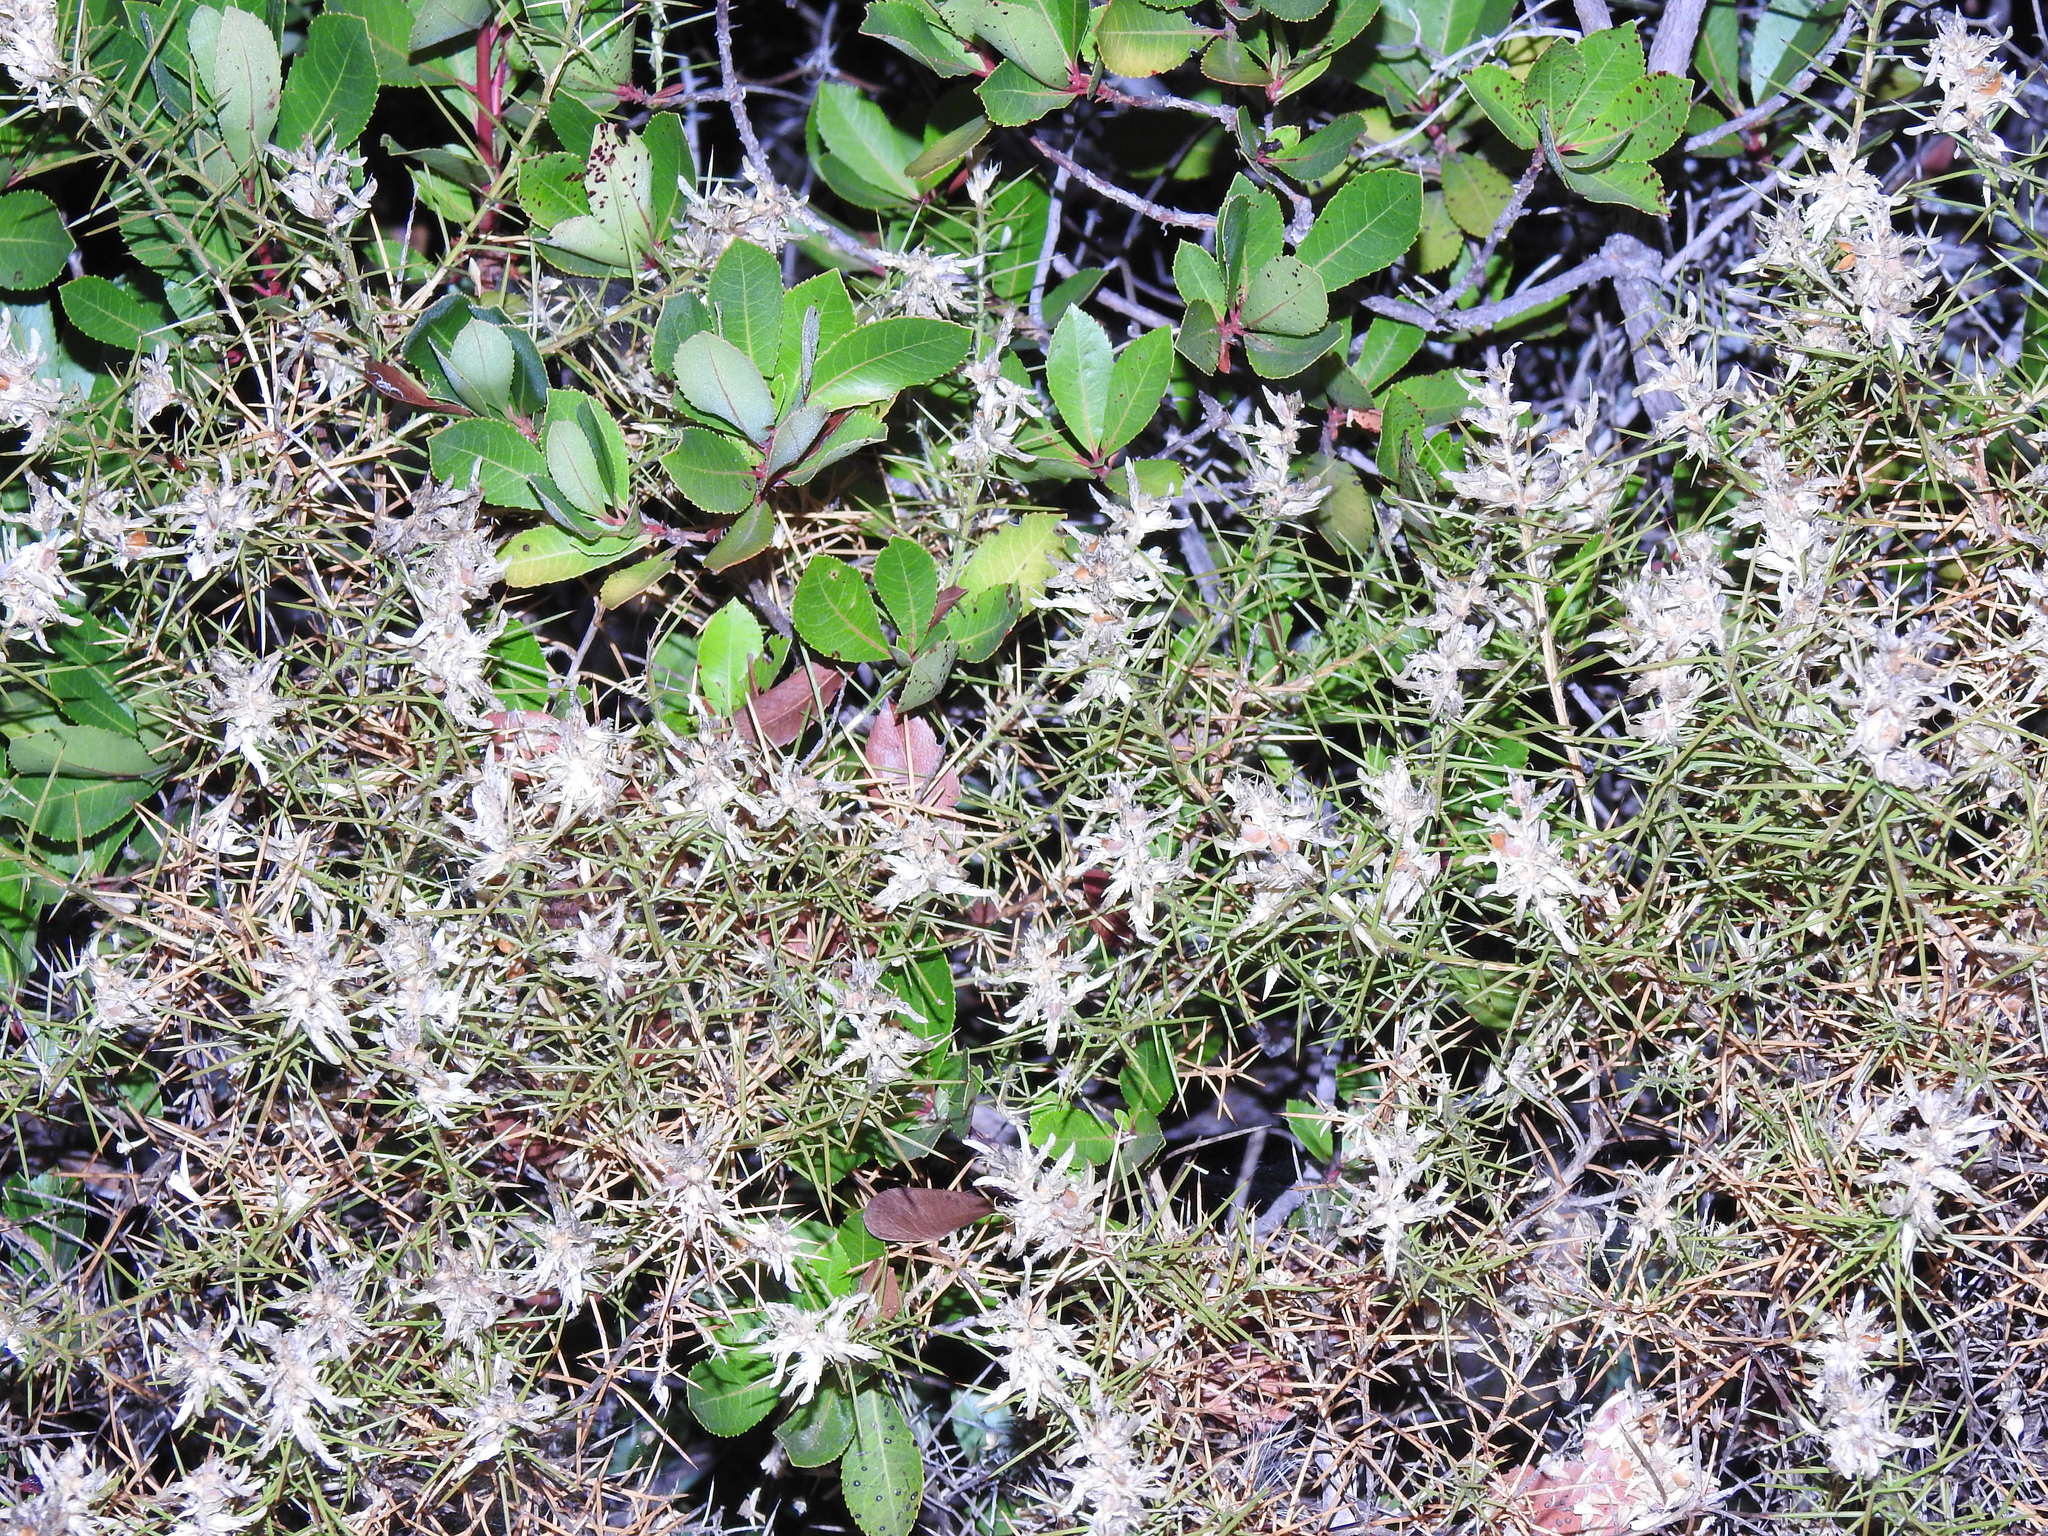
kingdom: Plantae
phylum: Tracheophyta
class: Magnoliopsida
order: Fabales
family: Fabaceae
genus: Genista
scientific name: Genista hirsuta
